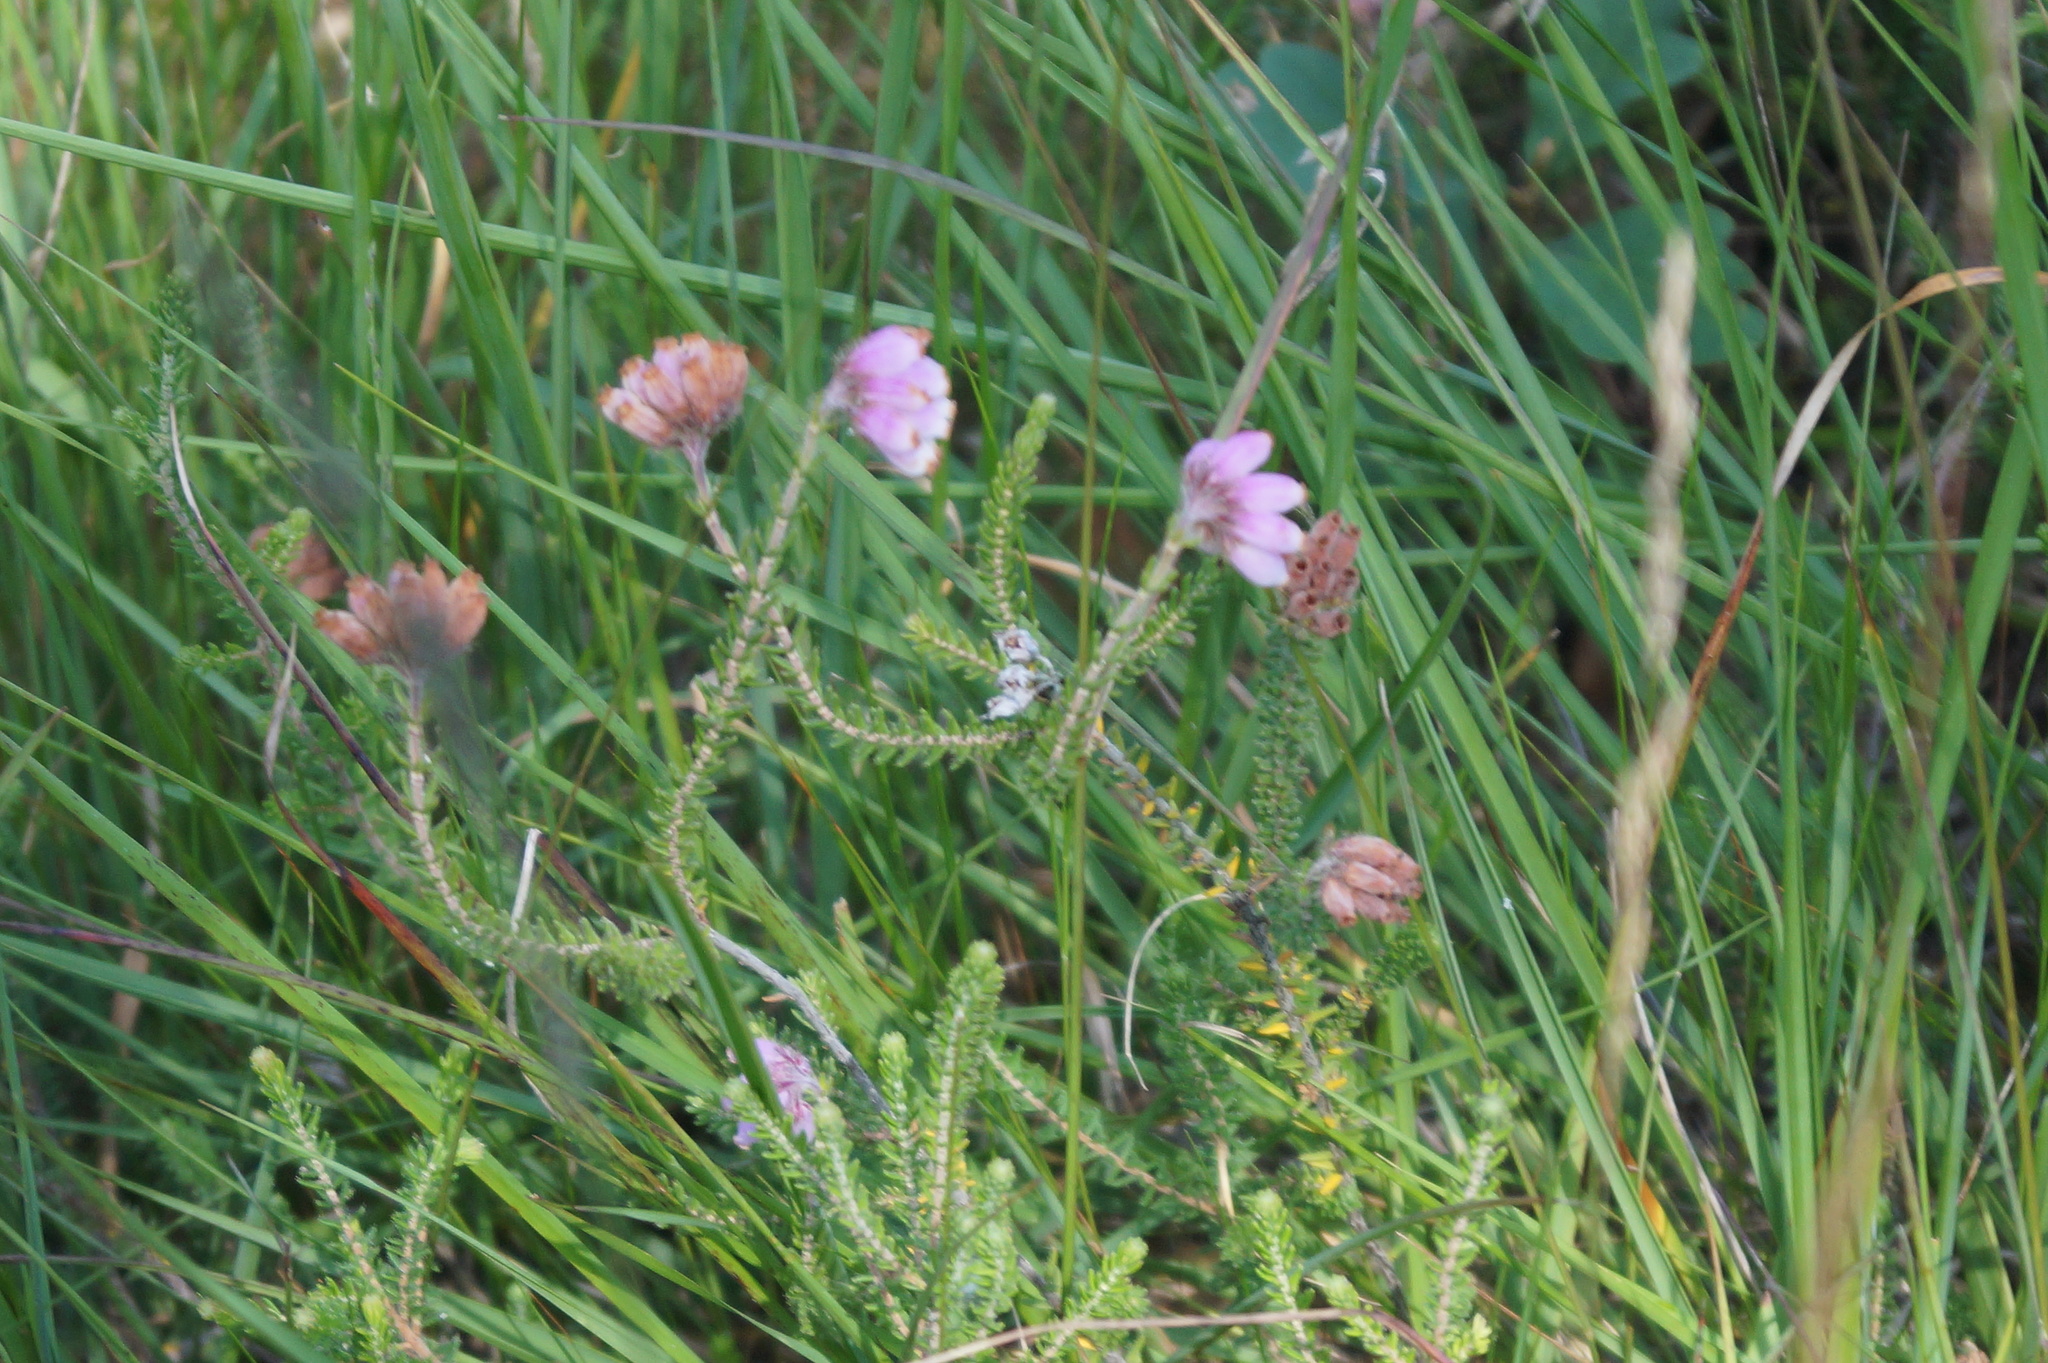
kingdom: Plantae
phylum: Tracheophyta
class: Magnoliopsida
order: Ericales
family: Ericaceae
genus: Erica
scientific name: Erica tetralix
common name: Cross-leaved heath
